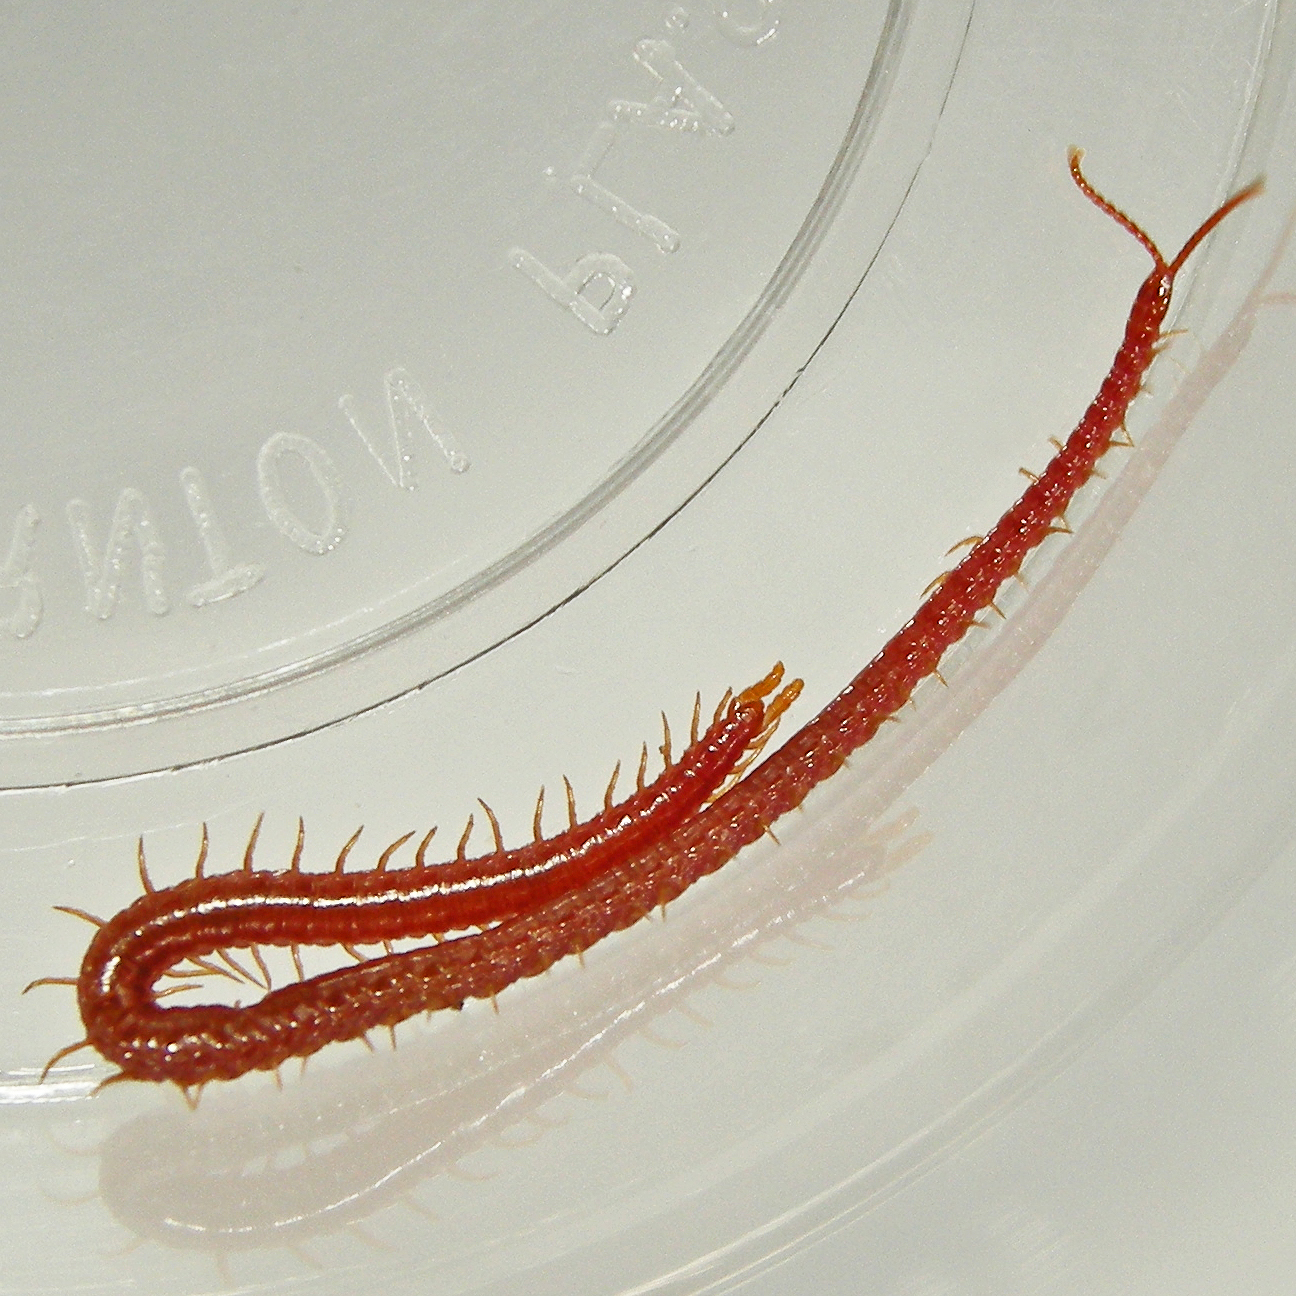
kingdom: Animalia
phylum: Arthropoda
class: Chilopoda
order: Geophilomorpha
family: Linotaeniidae
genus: Strigamia
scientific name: Strigamia bothriopus
